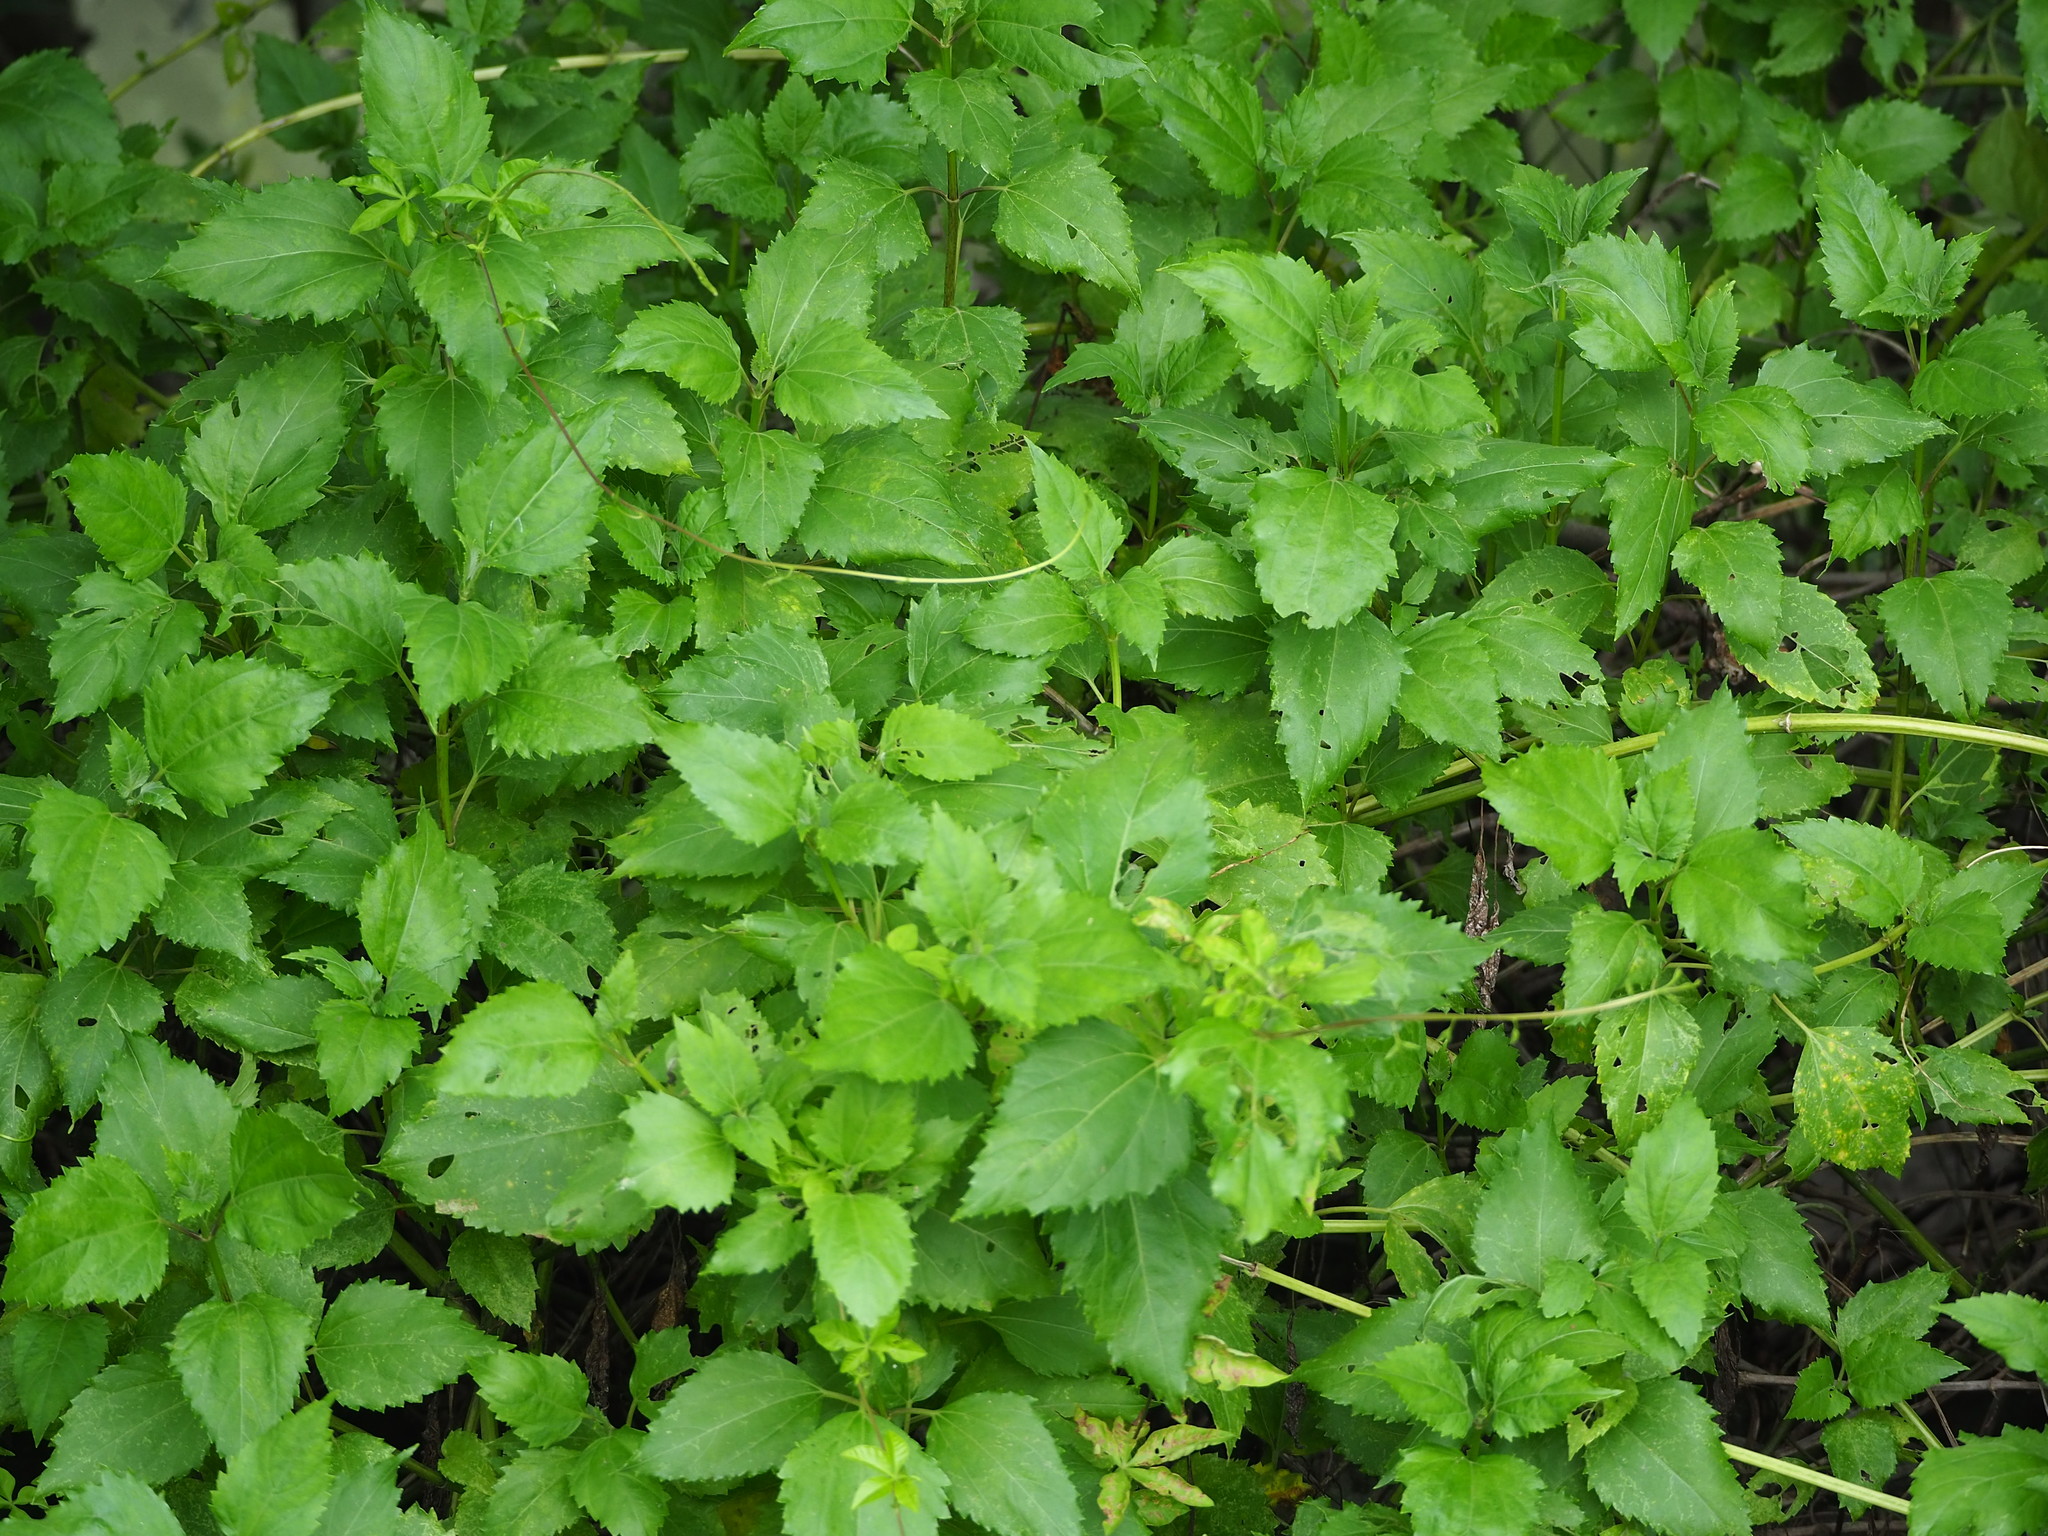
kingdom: Plantae
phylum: Tracheophyta
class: Magnoliopsida
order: Asterales
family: Asteraceae
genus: Wollastonia
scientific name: Wollastonia biflora
